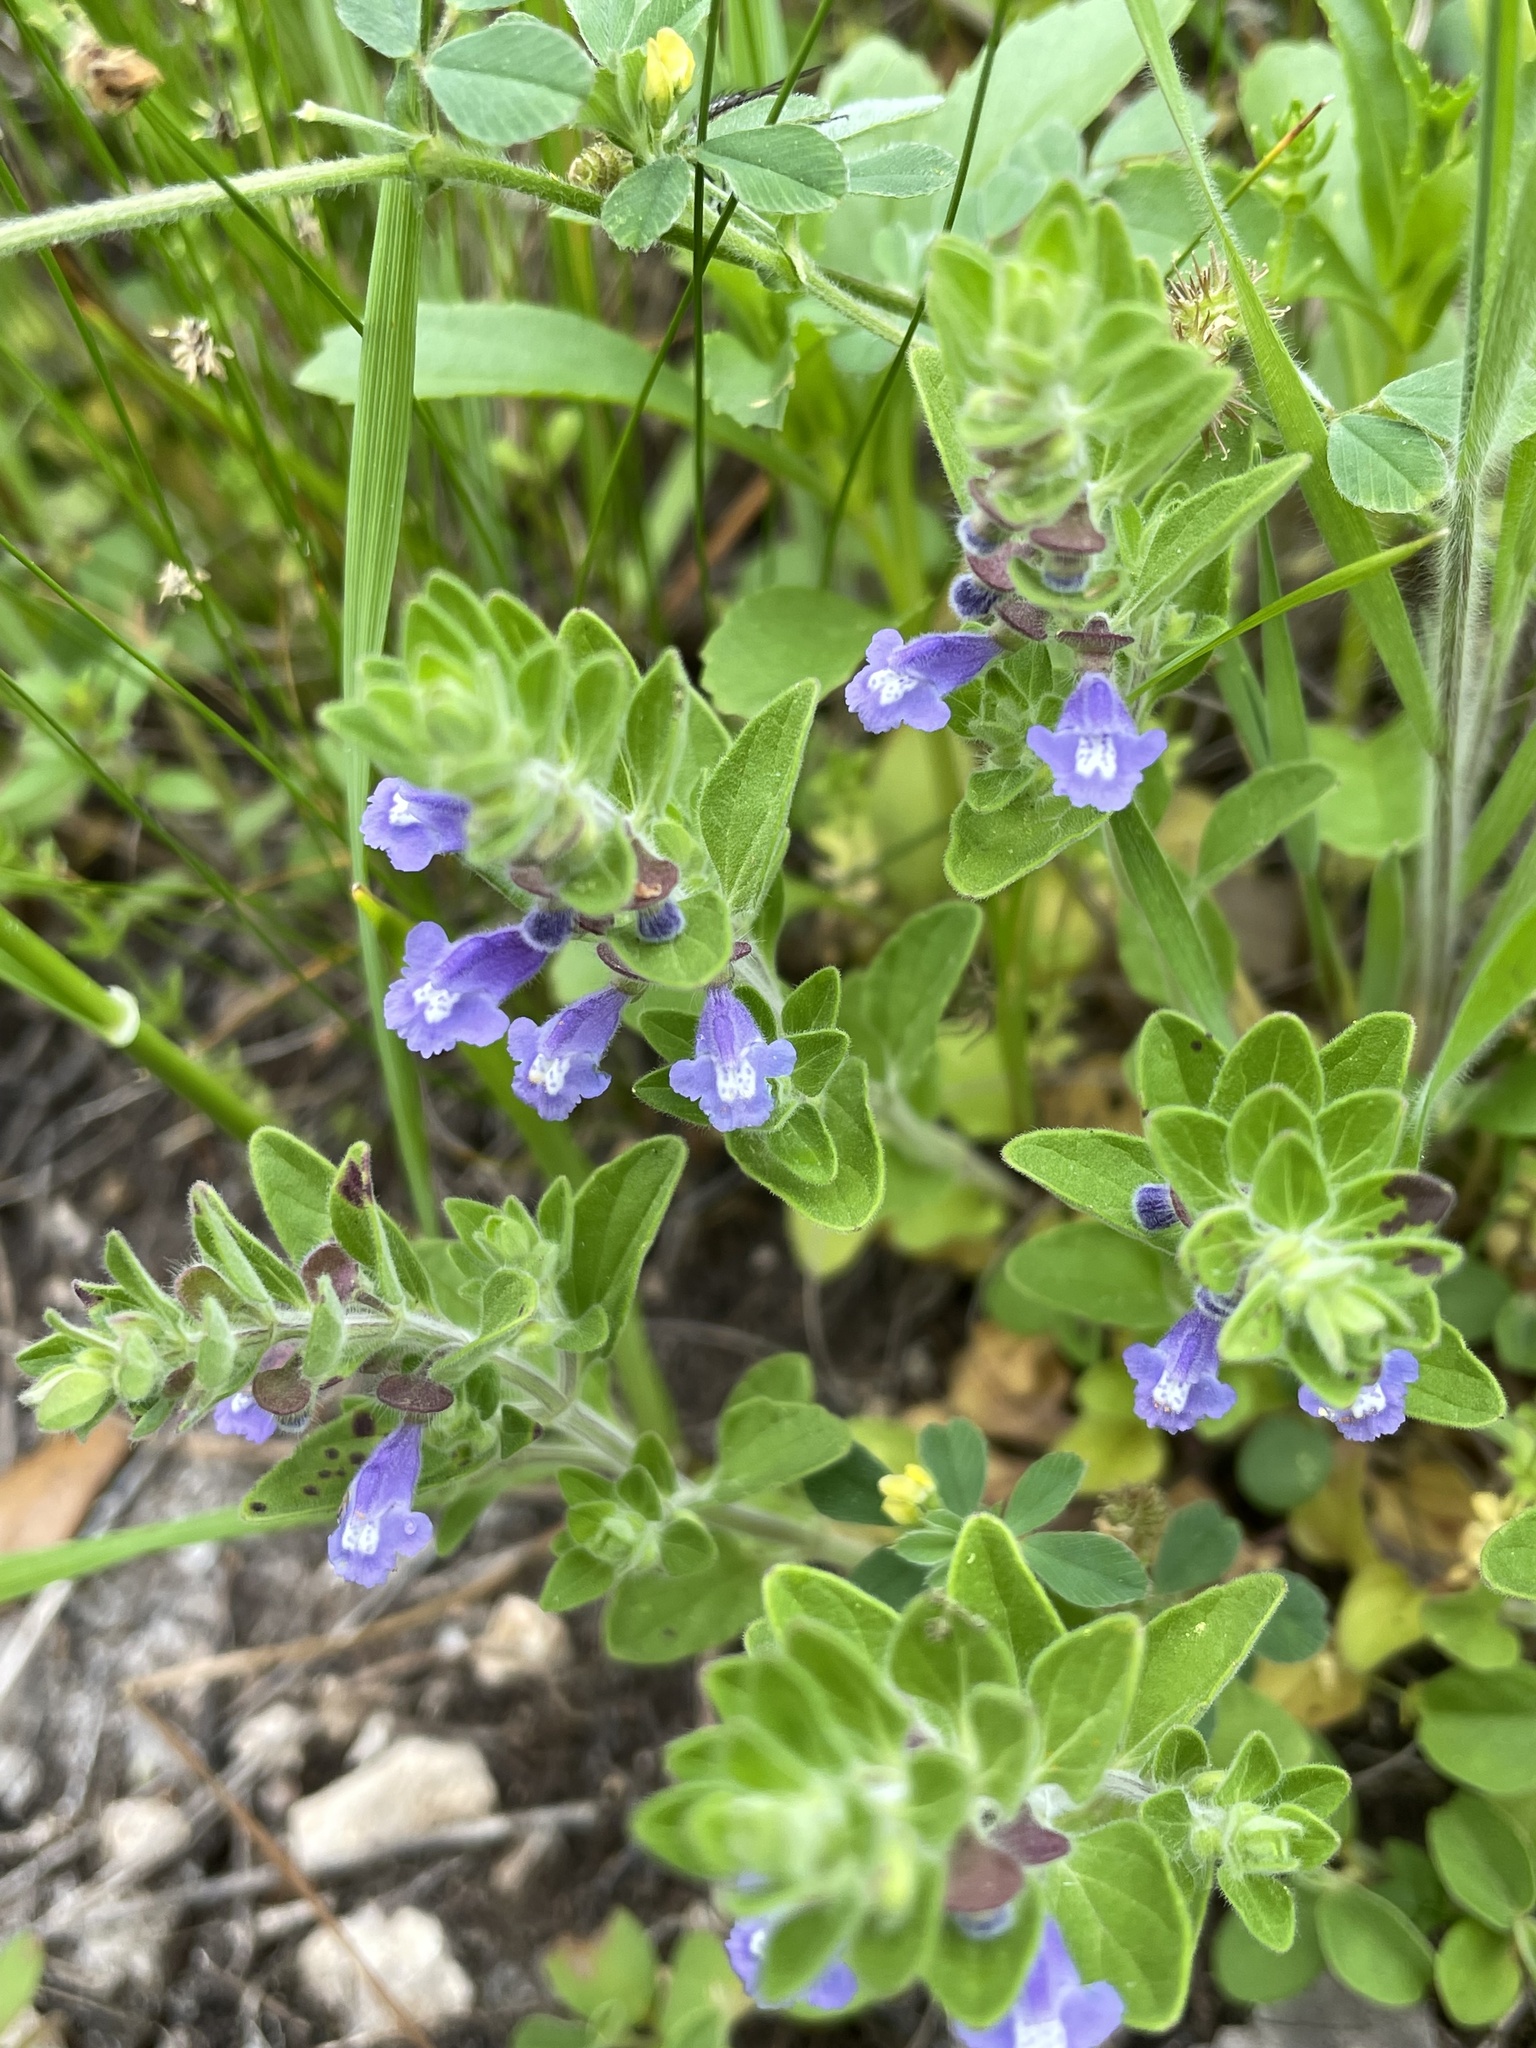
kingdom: Plantae
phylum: Tracheophyta
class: Magnoliopsida
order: Lamiales
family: Lamiaceae
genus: Scutellaria
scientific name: Scutellaria drummondii
